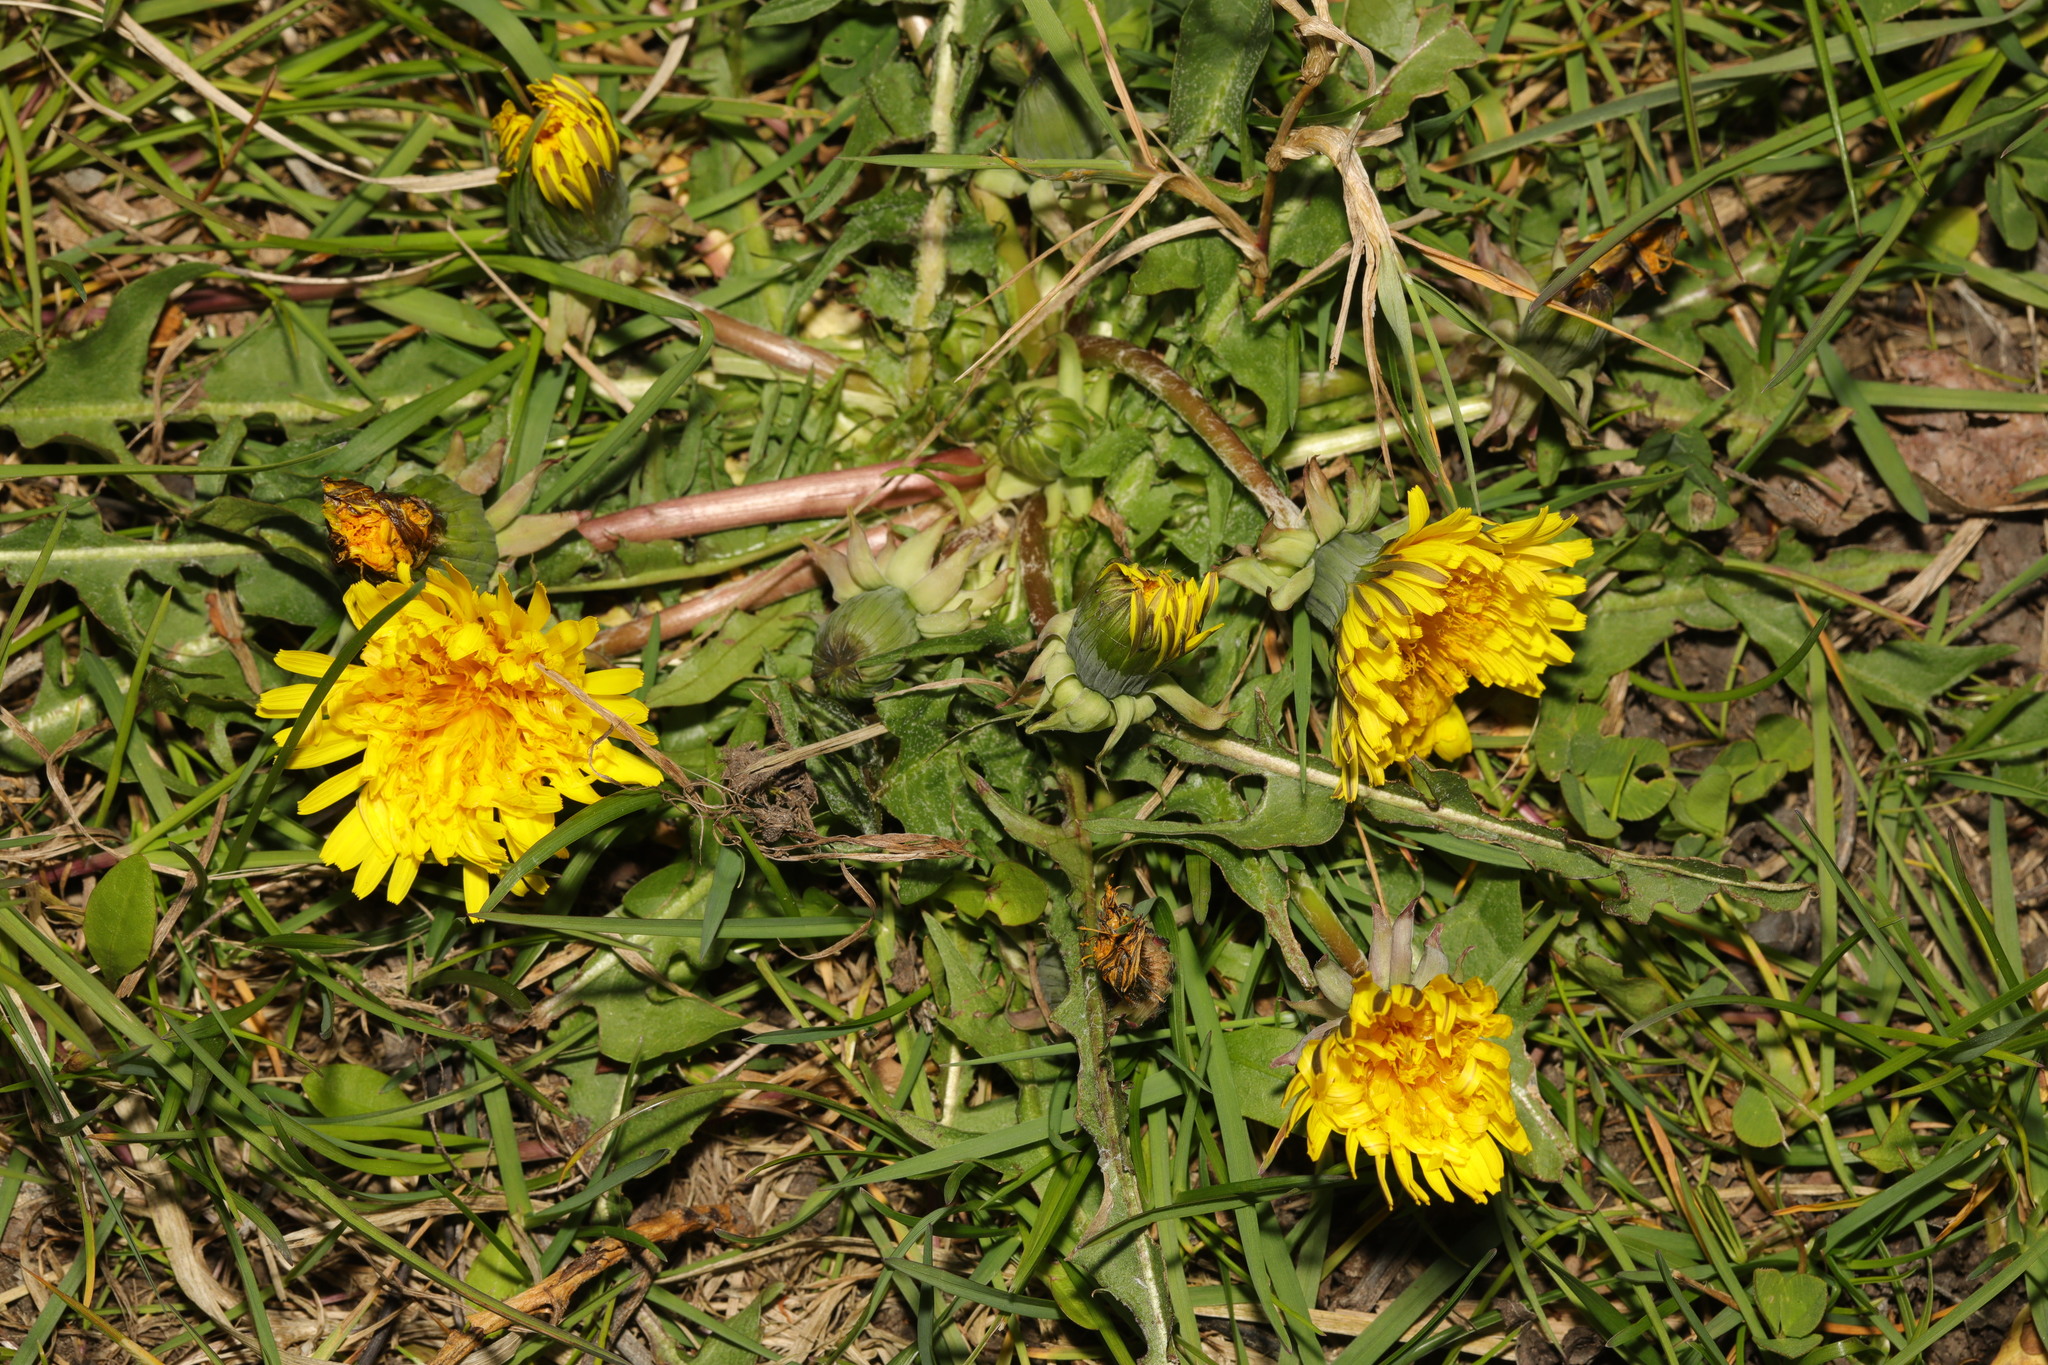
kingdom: Plantae
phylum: Tracheophyta
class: Magnoliopsida
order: Asterales
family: Asteraceae
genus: Taraxacum
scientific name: Taraxacum officinale
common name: Common dandelion
